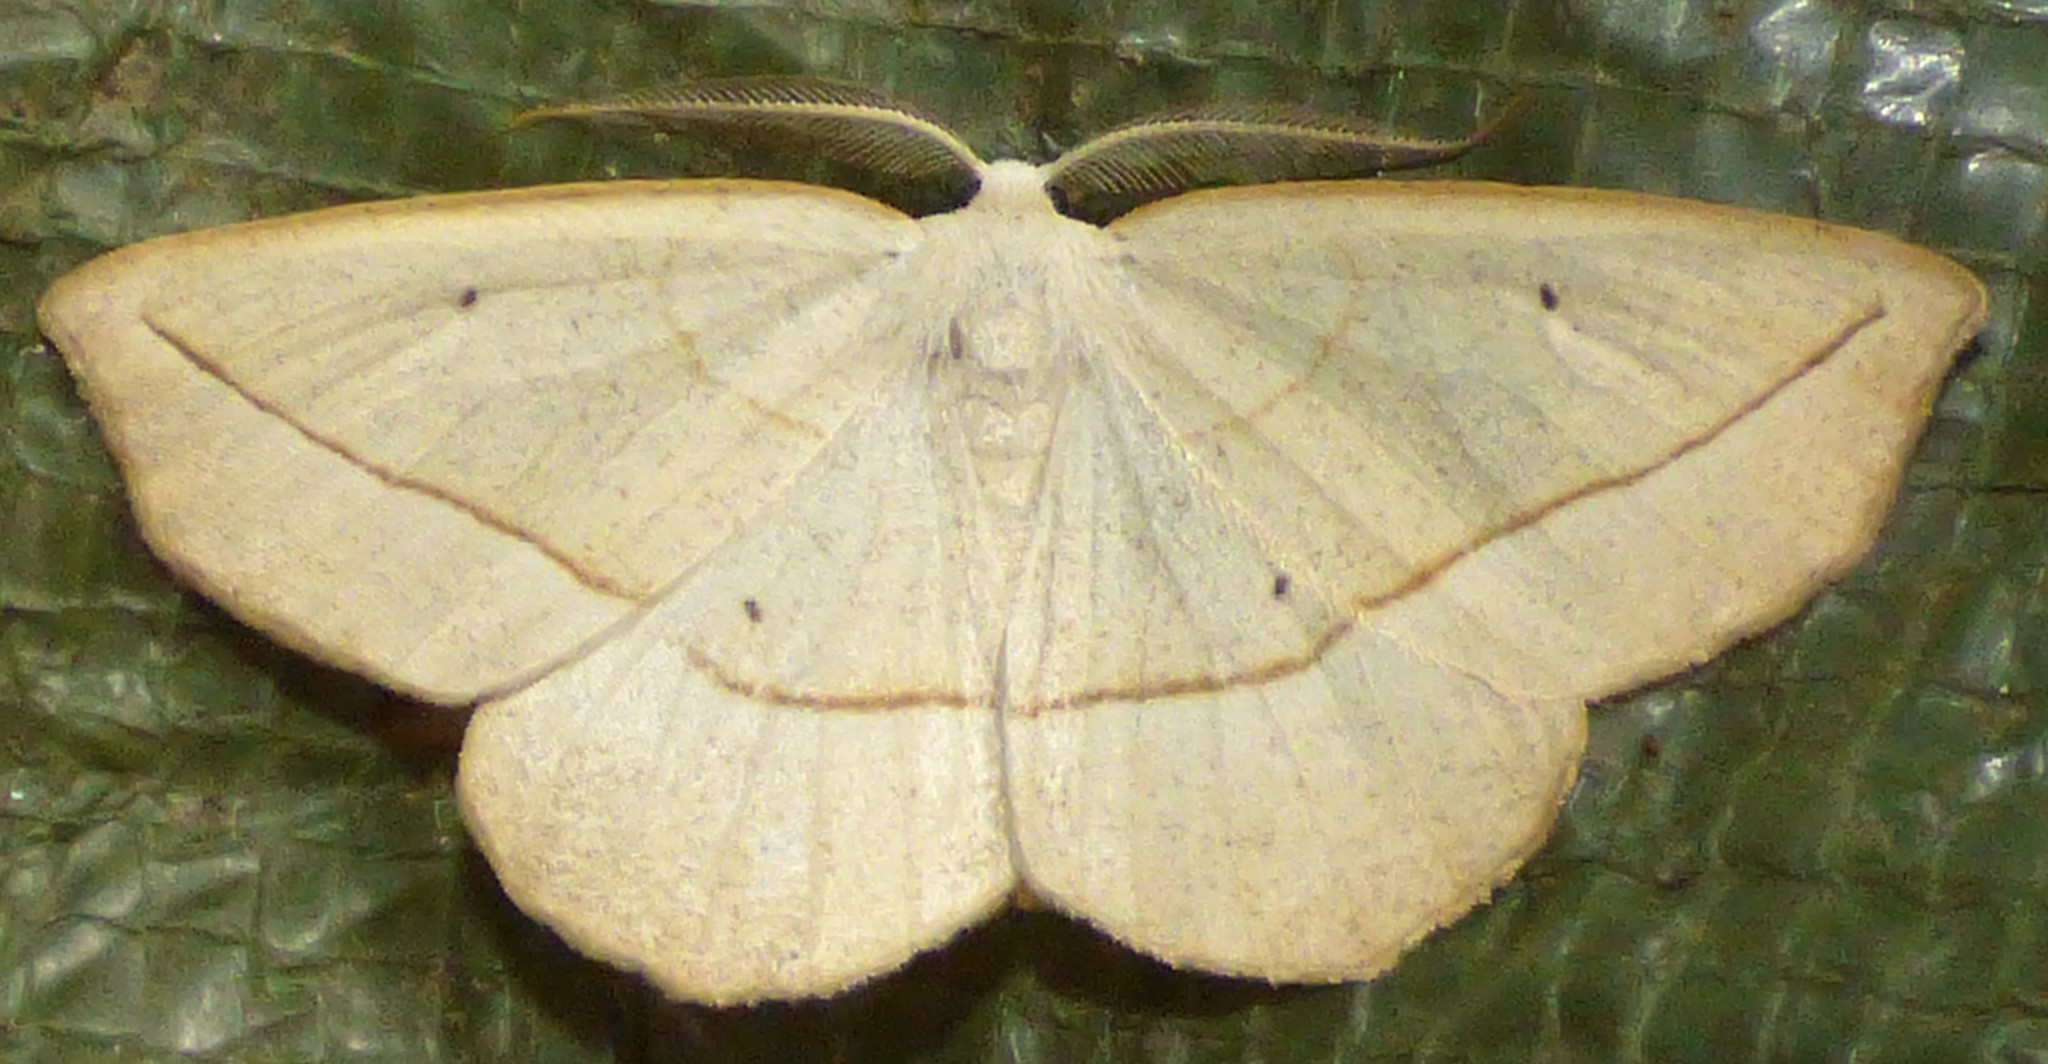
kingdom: Animalia
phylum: Arthropoda
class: Insecta
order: Lepidoptera
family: Geometridae
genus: Eusarca
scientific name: Eusarca confusaria
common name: Confused eusarca
